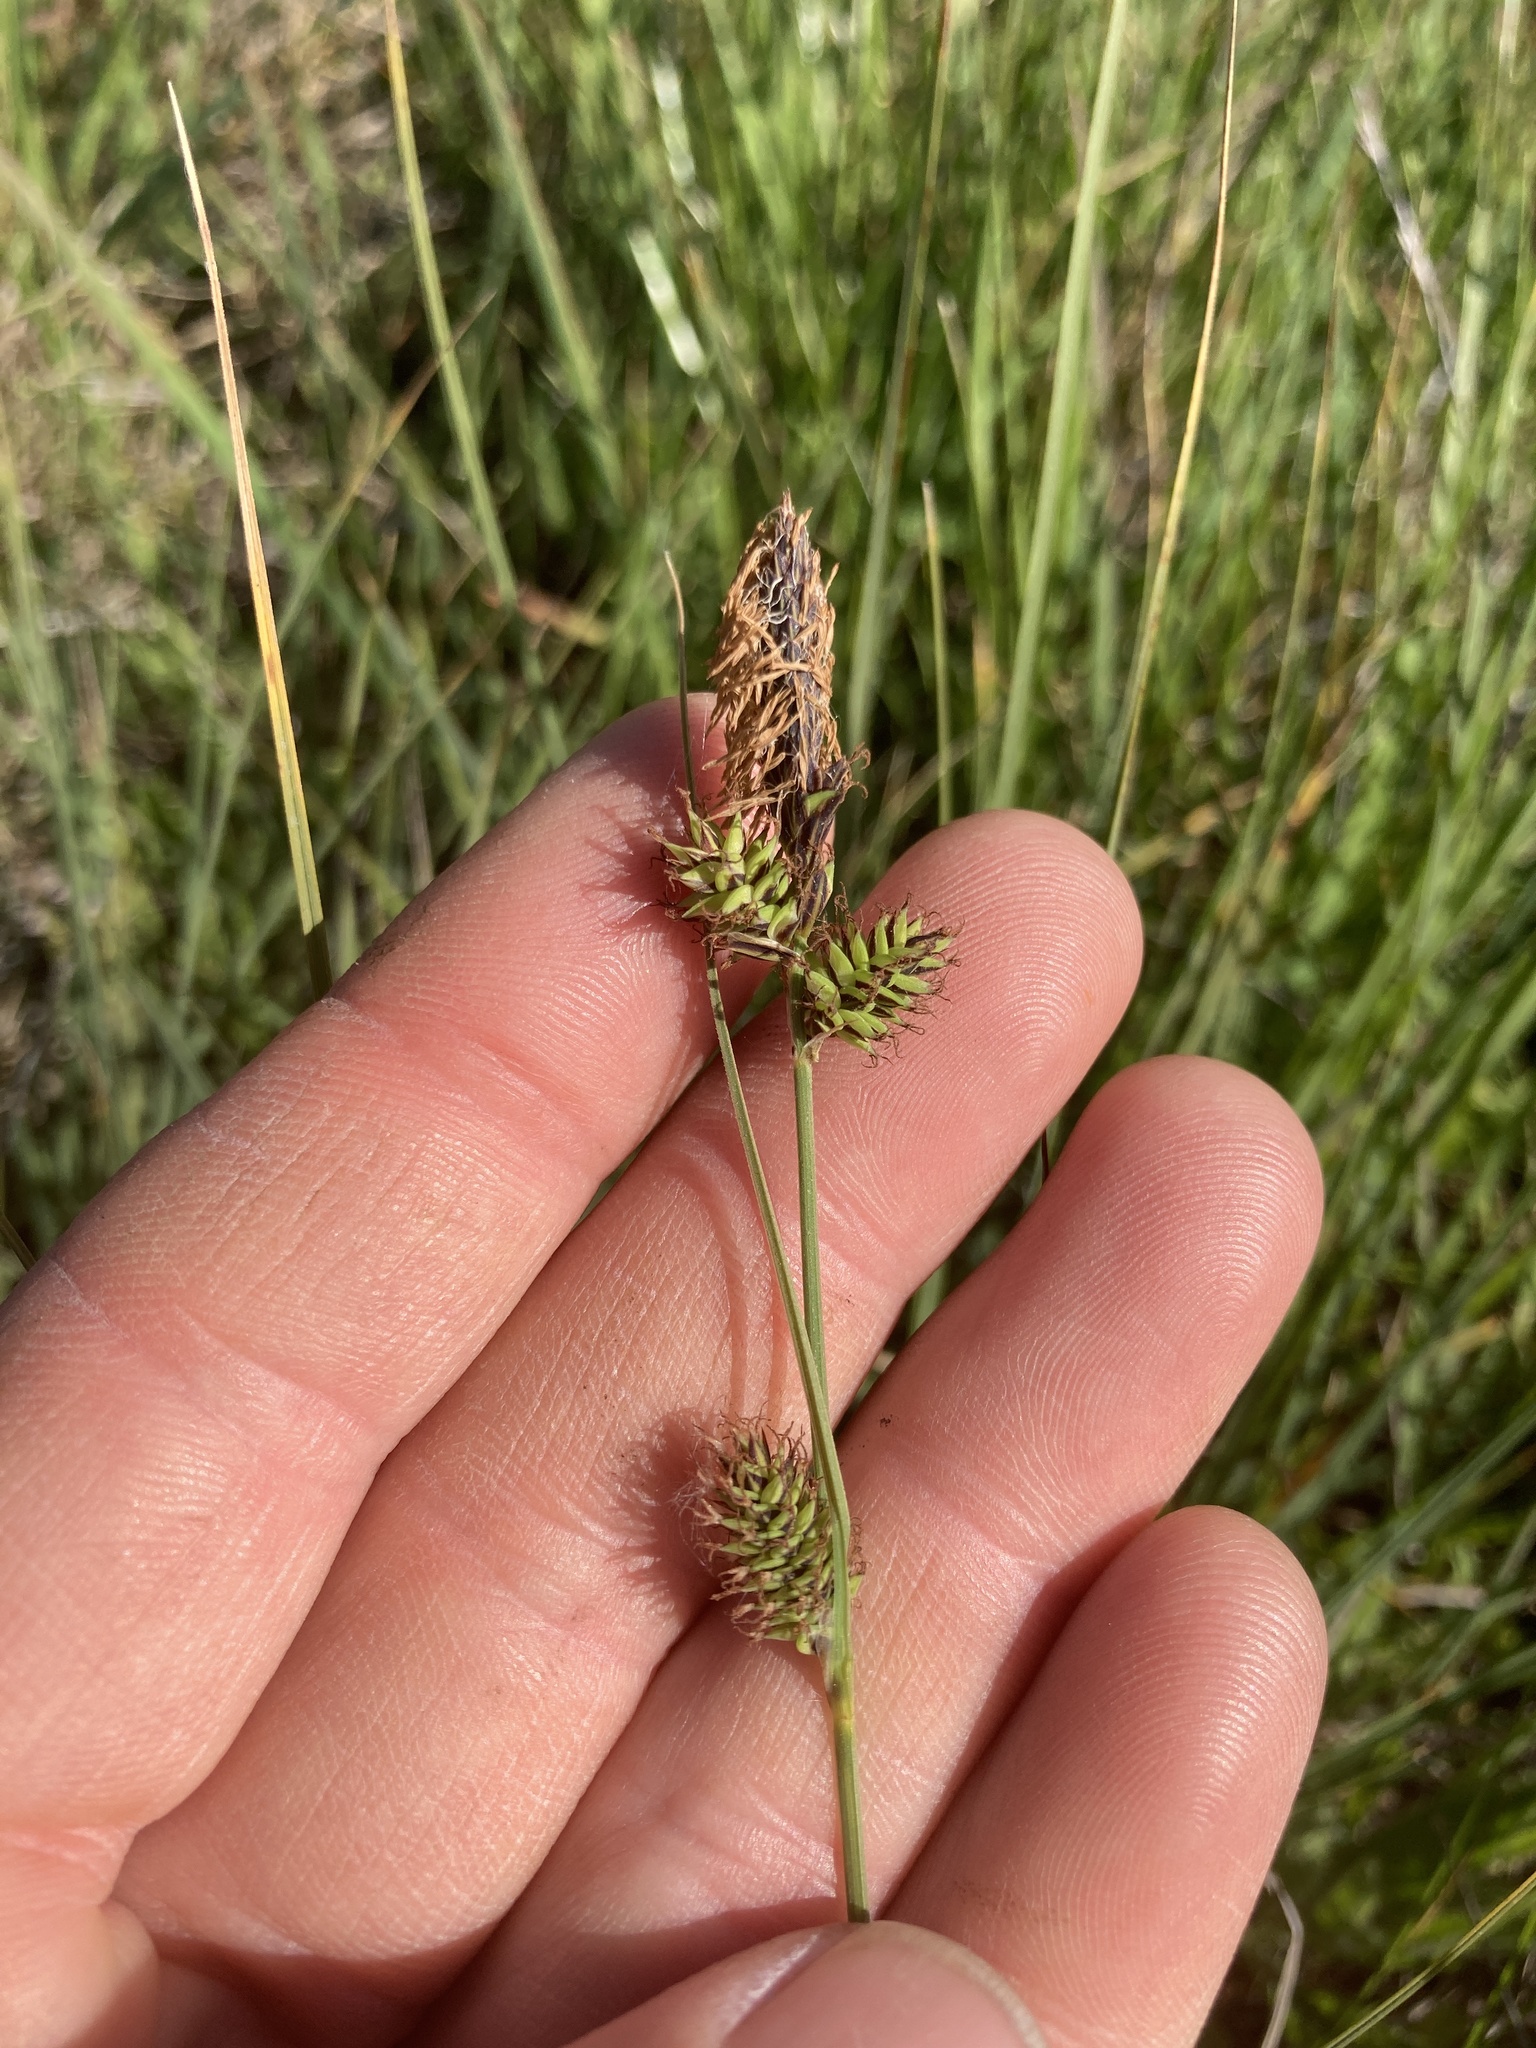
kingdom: Plantae
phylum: Tracheophyta
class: Liliopsida
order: Poales
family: Cyperaceae
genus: Carex
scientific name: Carex serratodens
